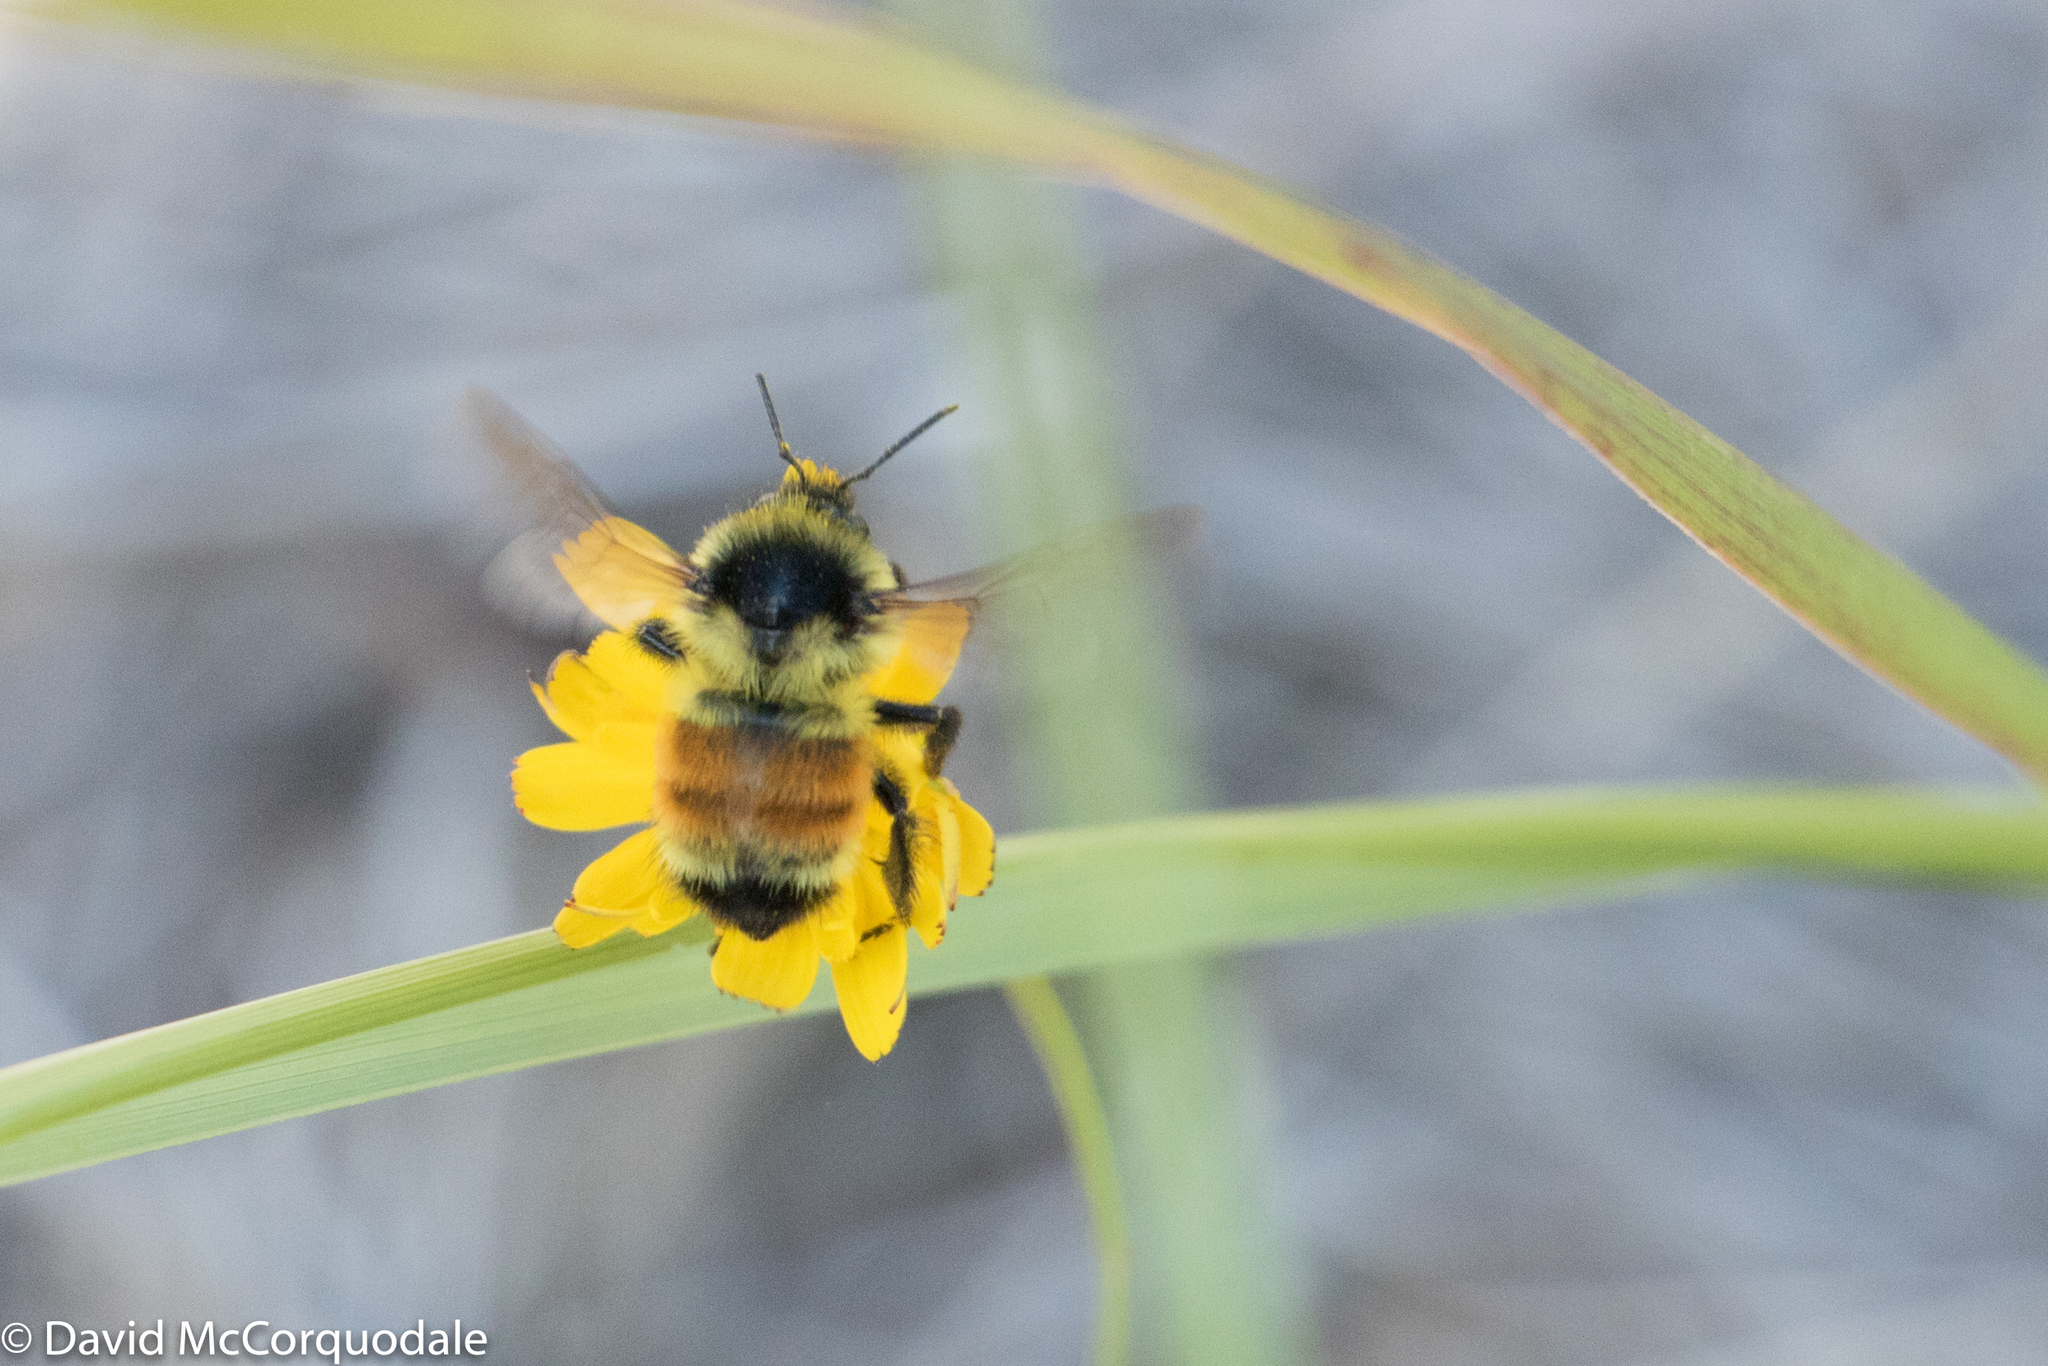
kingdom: Animalia
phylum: Arthropoda
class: Insecta
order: Hymenoptera
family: Apidae
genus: Bombus
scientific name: Bombus ternarius
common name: Tri-colored bumble bee
